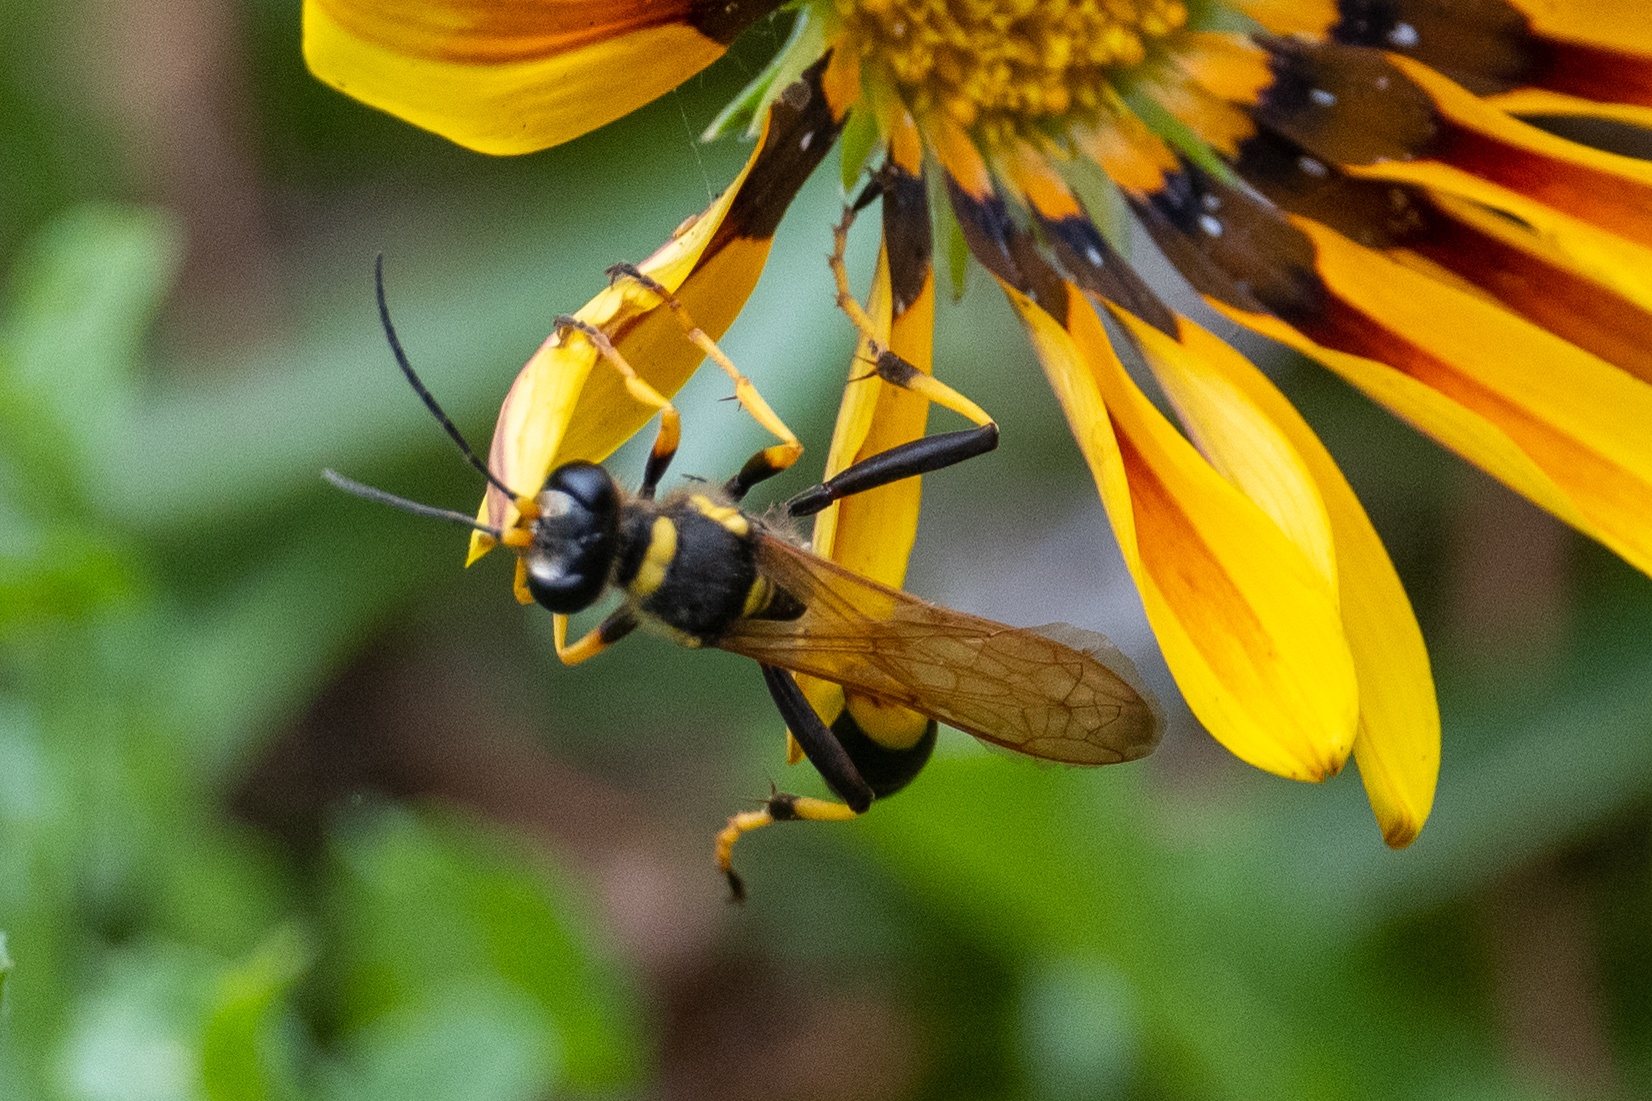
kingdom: Animalia
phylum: Arthropoda
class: Insecta
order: Hymenoptera
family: Sphecidae
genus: Sceliphron
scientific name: Sceliphron caementarium
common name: Mud dauber
